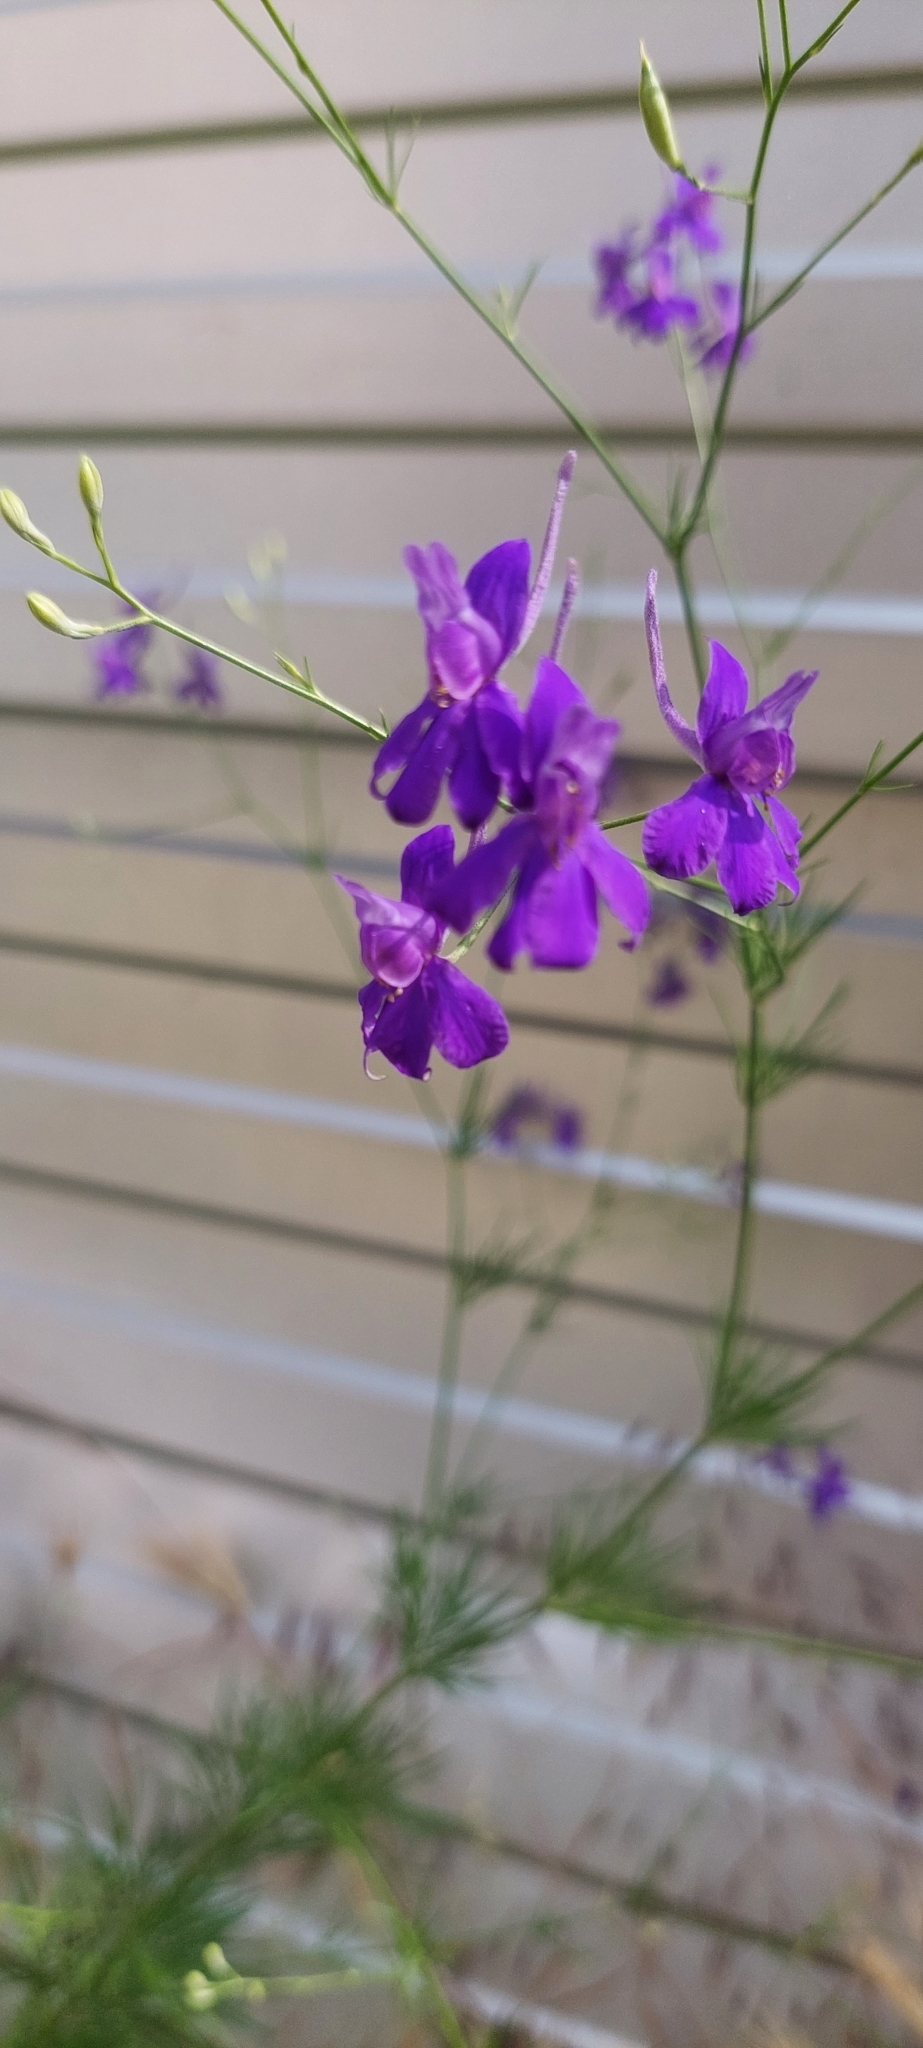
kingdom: Plantae
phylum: Tracheophyta
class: Magnoliopsida
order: Ranunculales
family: Ranunculaceae
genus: Delphinium
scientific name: Delphinium consolida
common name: Branching larkspur
